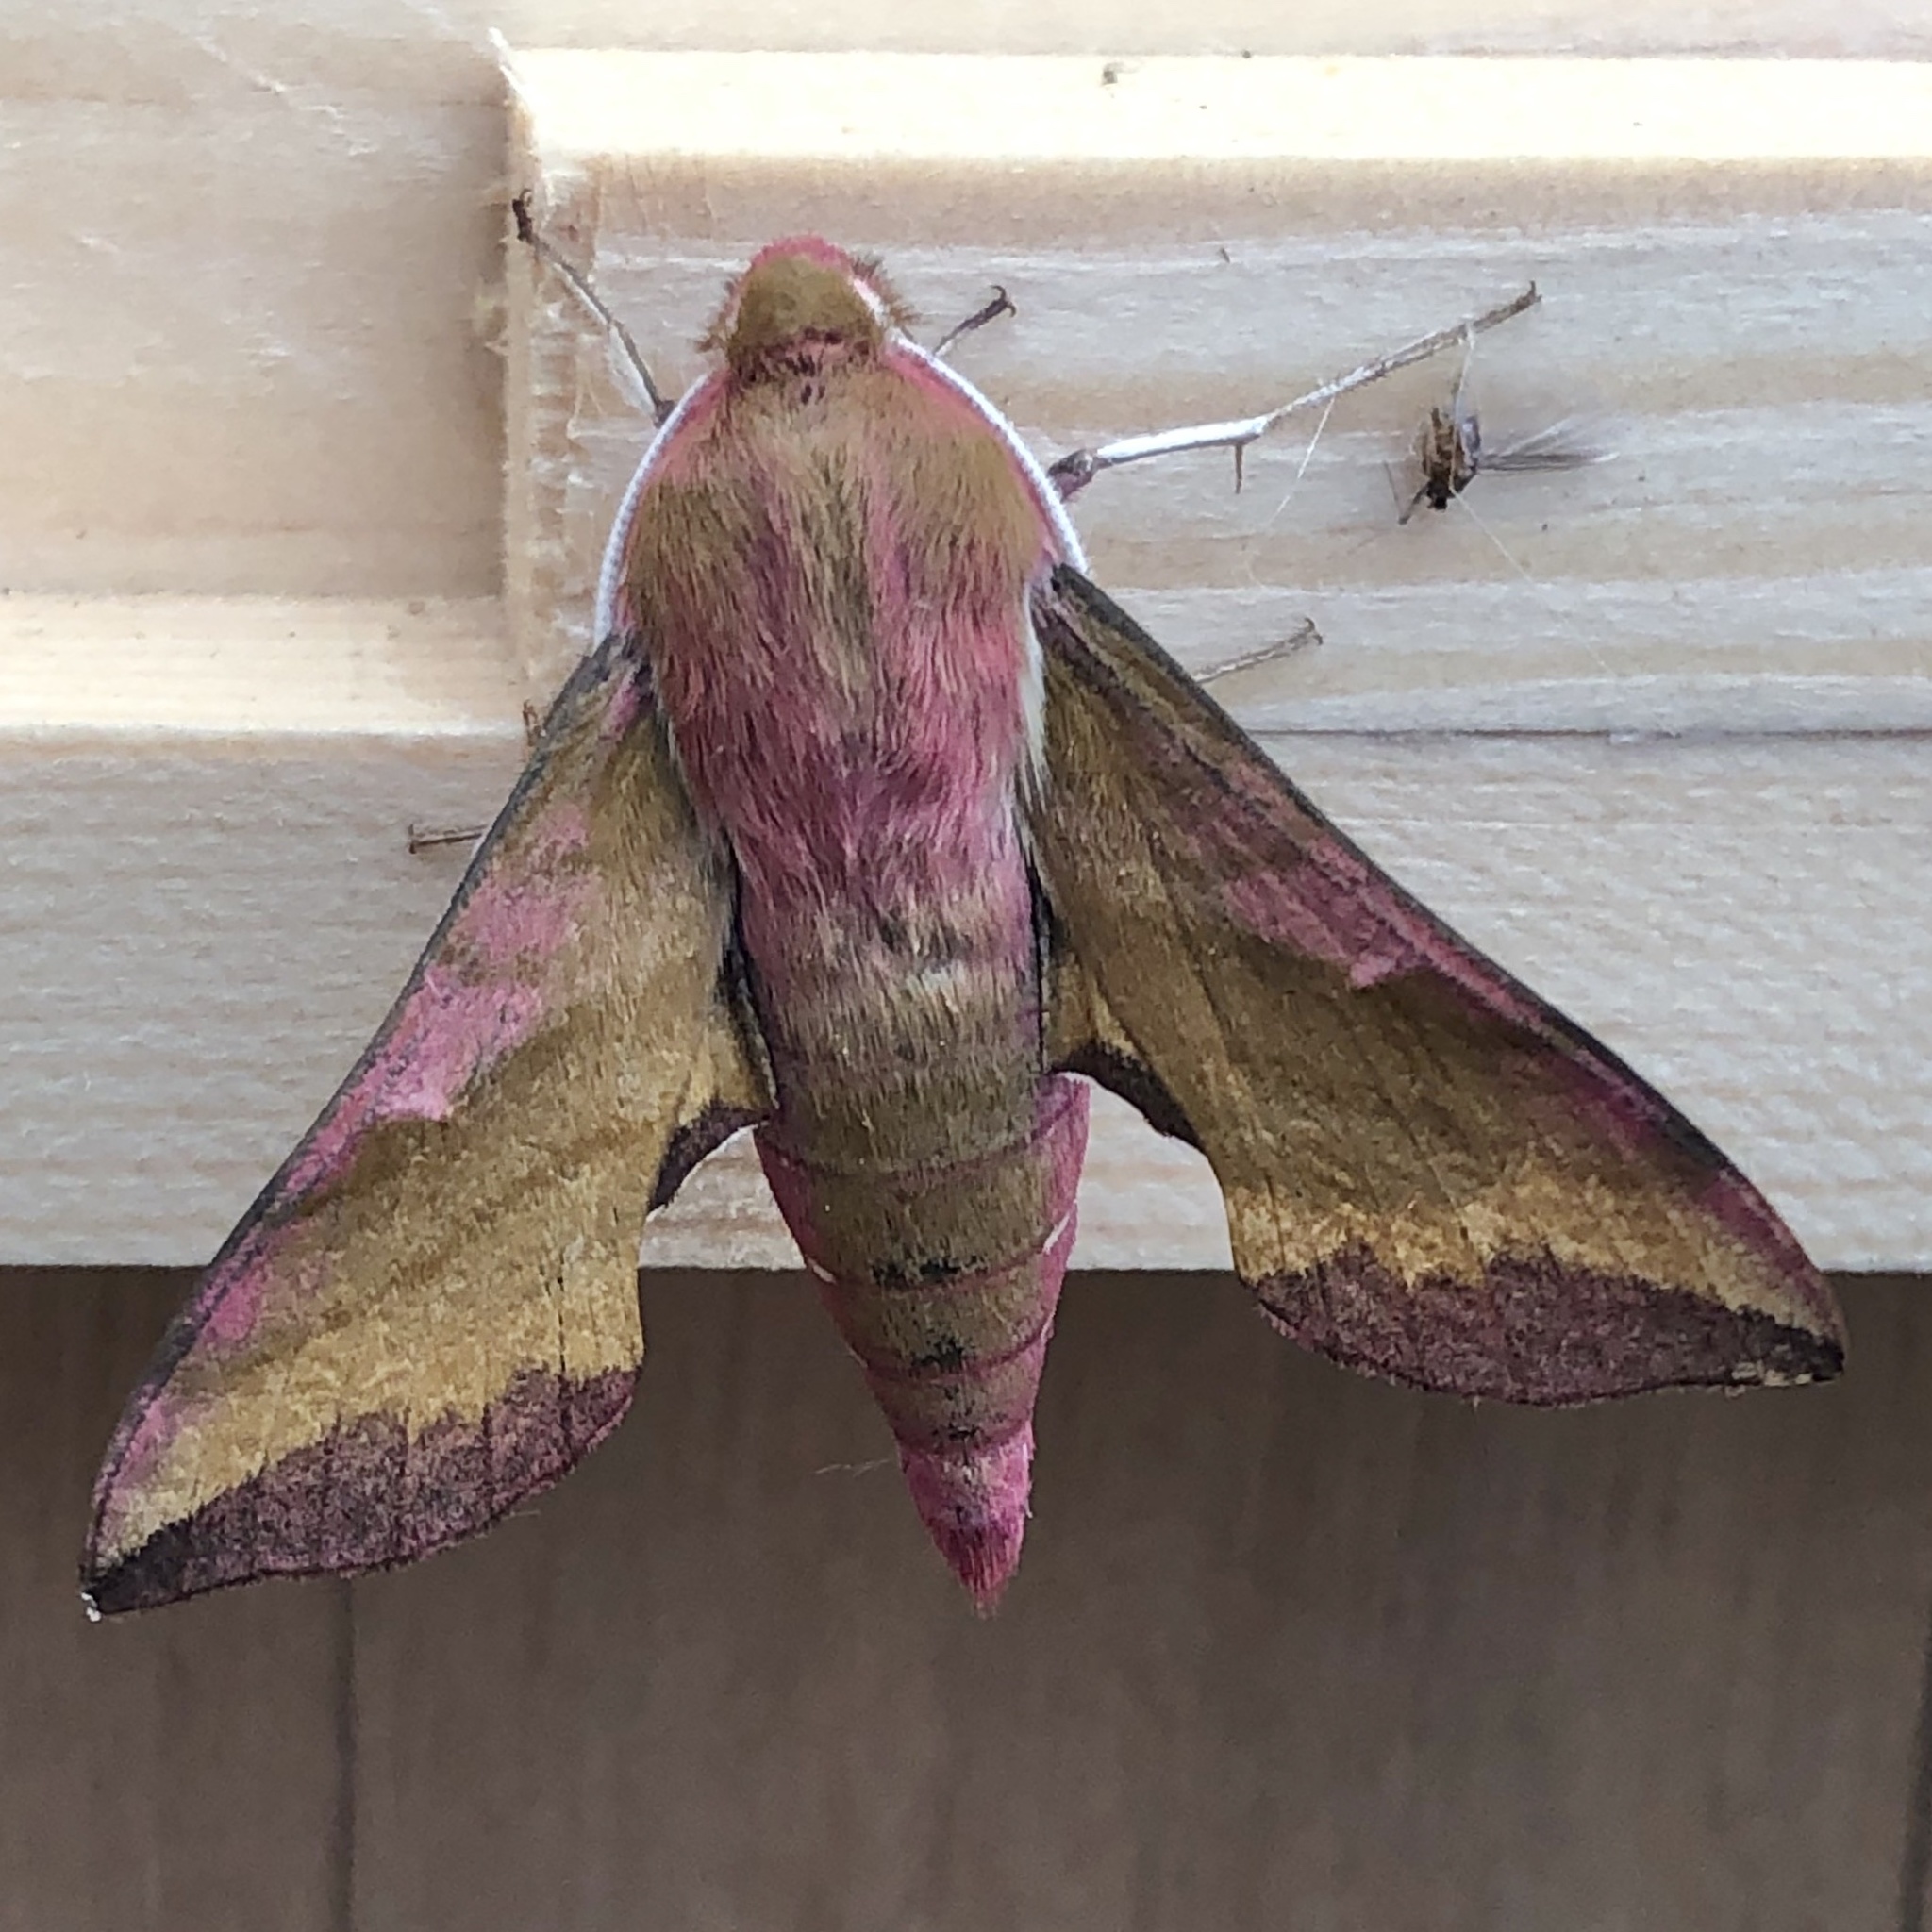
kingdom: Animalia
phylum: Arthropoda
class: Insecta
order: Lepidoptera
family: Sphingidae
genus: Deilephila
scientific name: Deilephila porcellus
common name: Small elephant hawk-moth
